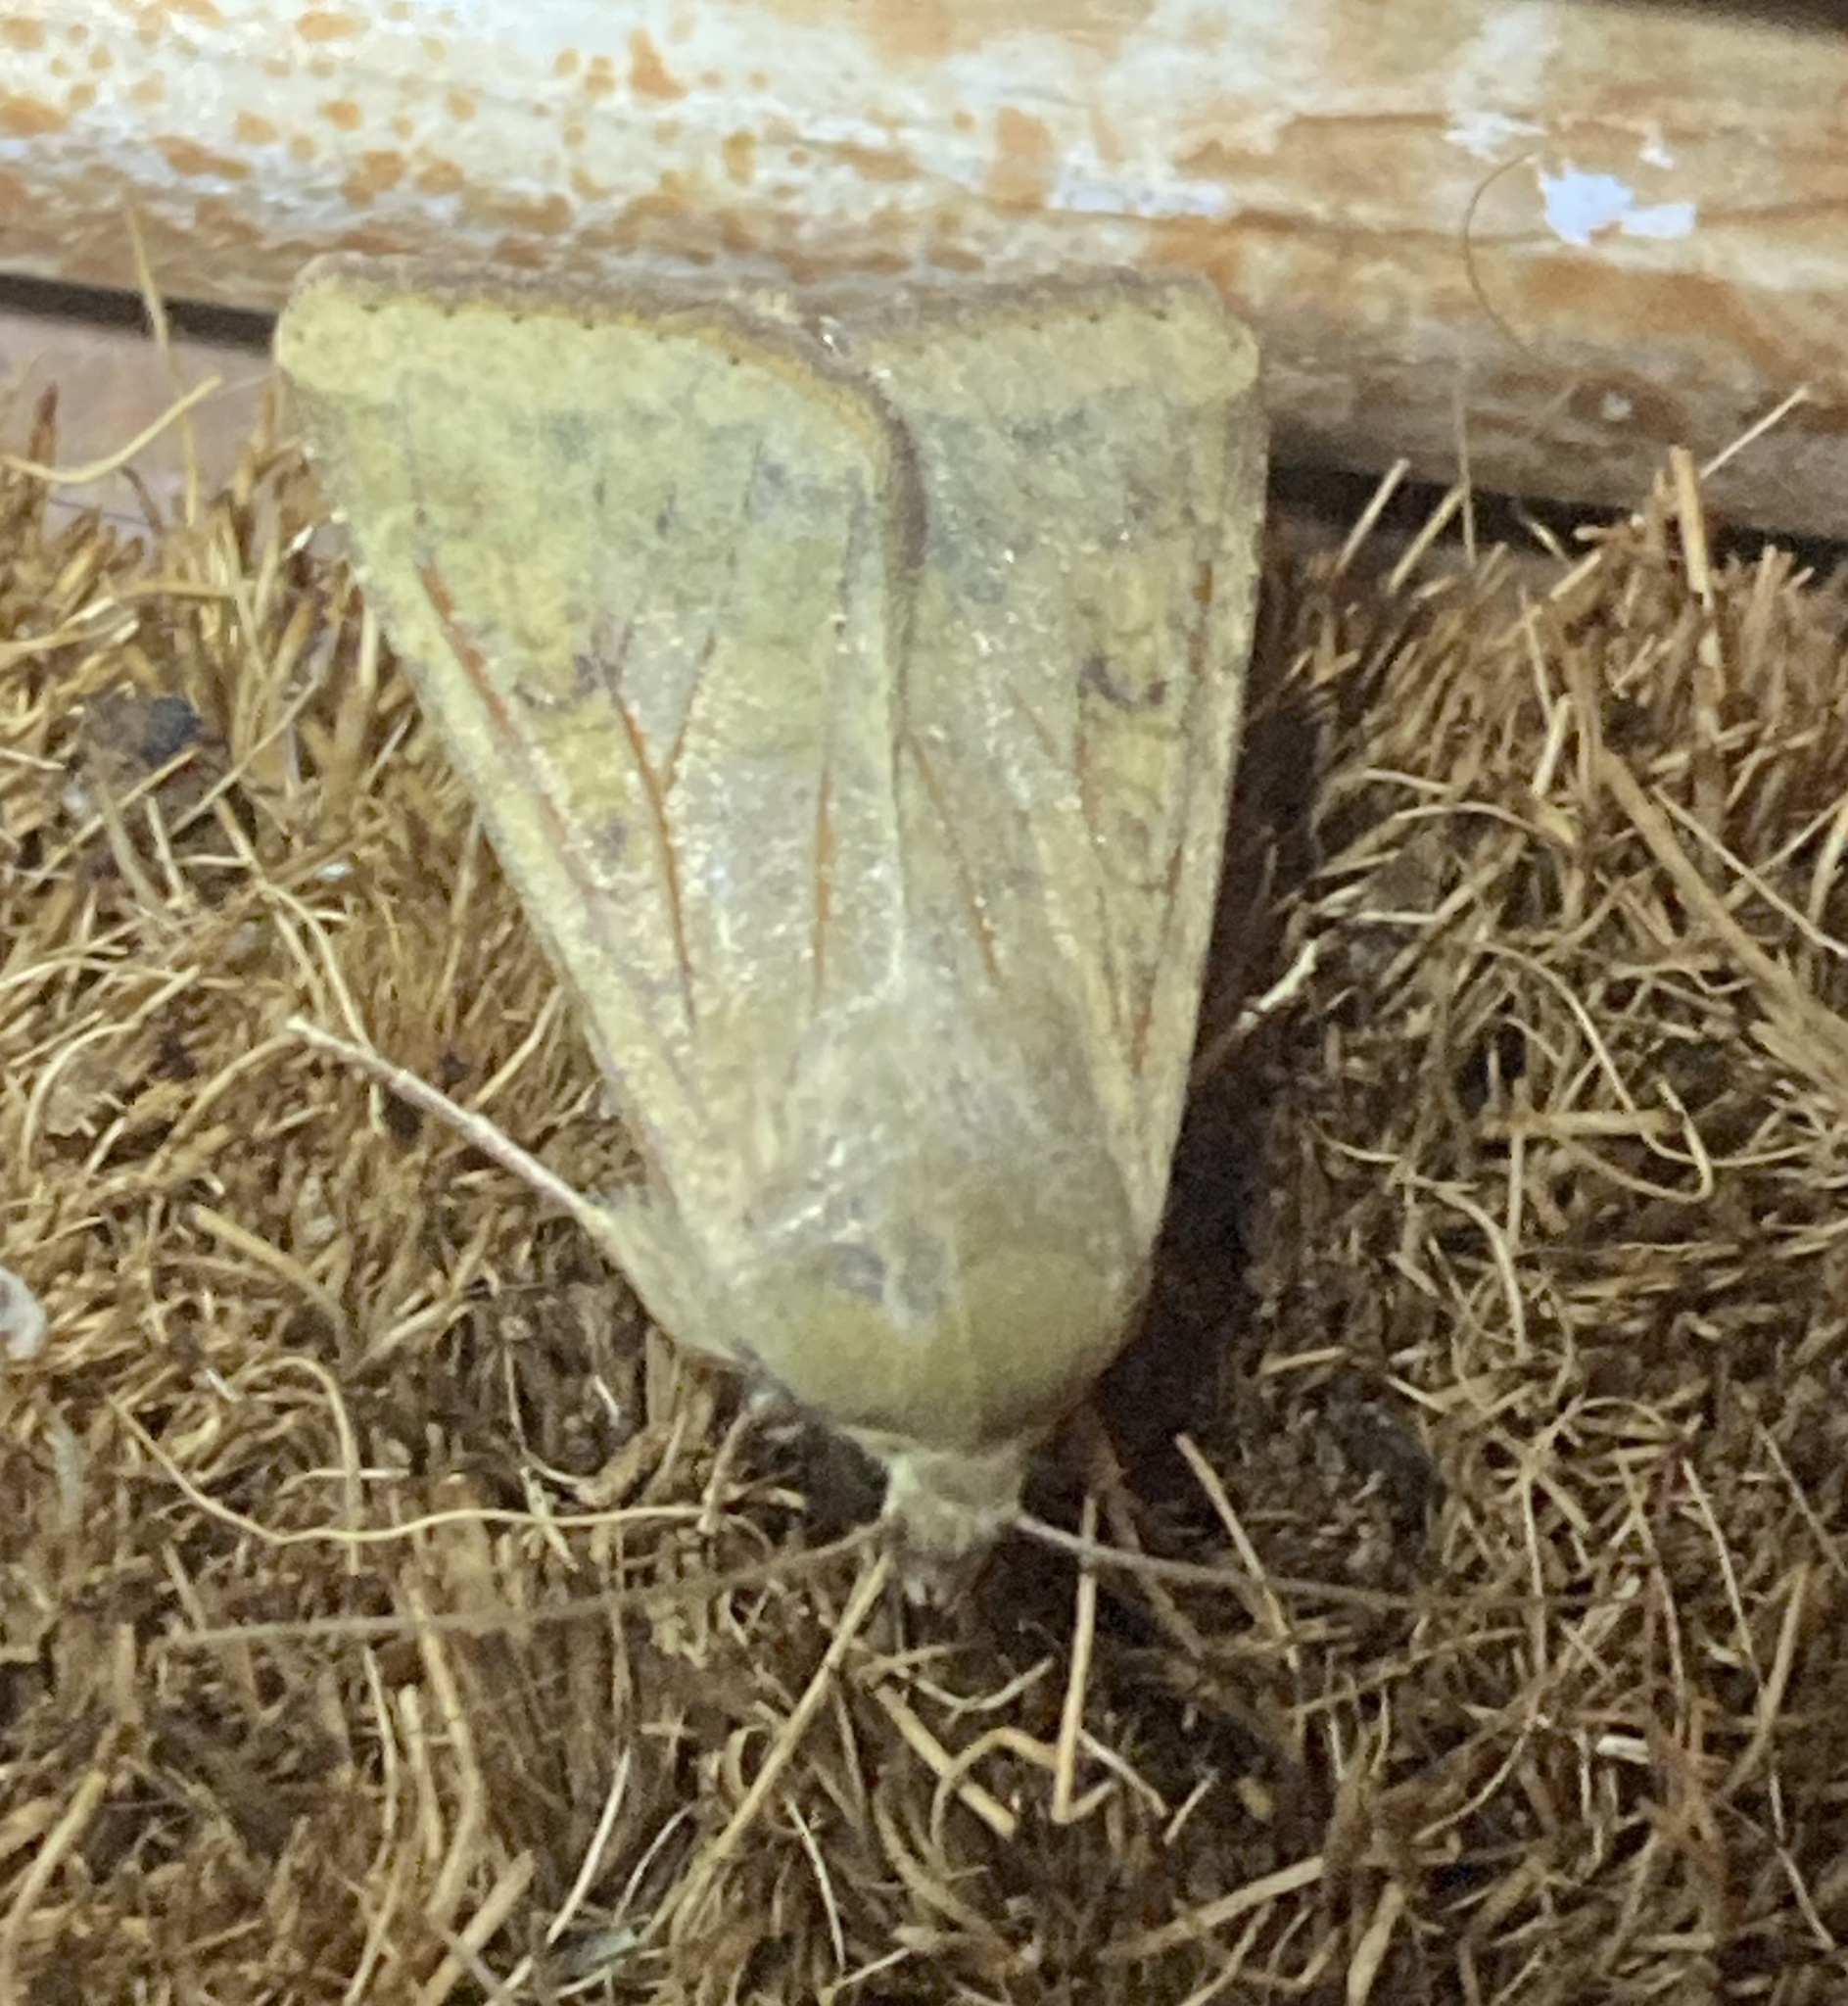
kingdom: Animalia
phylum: Arthropoda
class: Insecta
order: Lepidoptera
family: Noctuidae
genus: Helicoverpa
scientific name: Helicoverpa zea
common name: Bollworm
